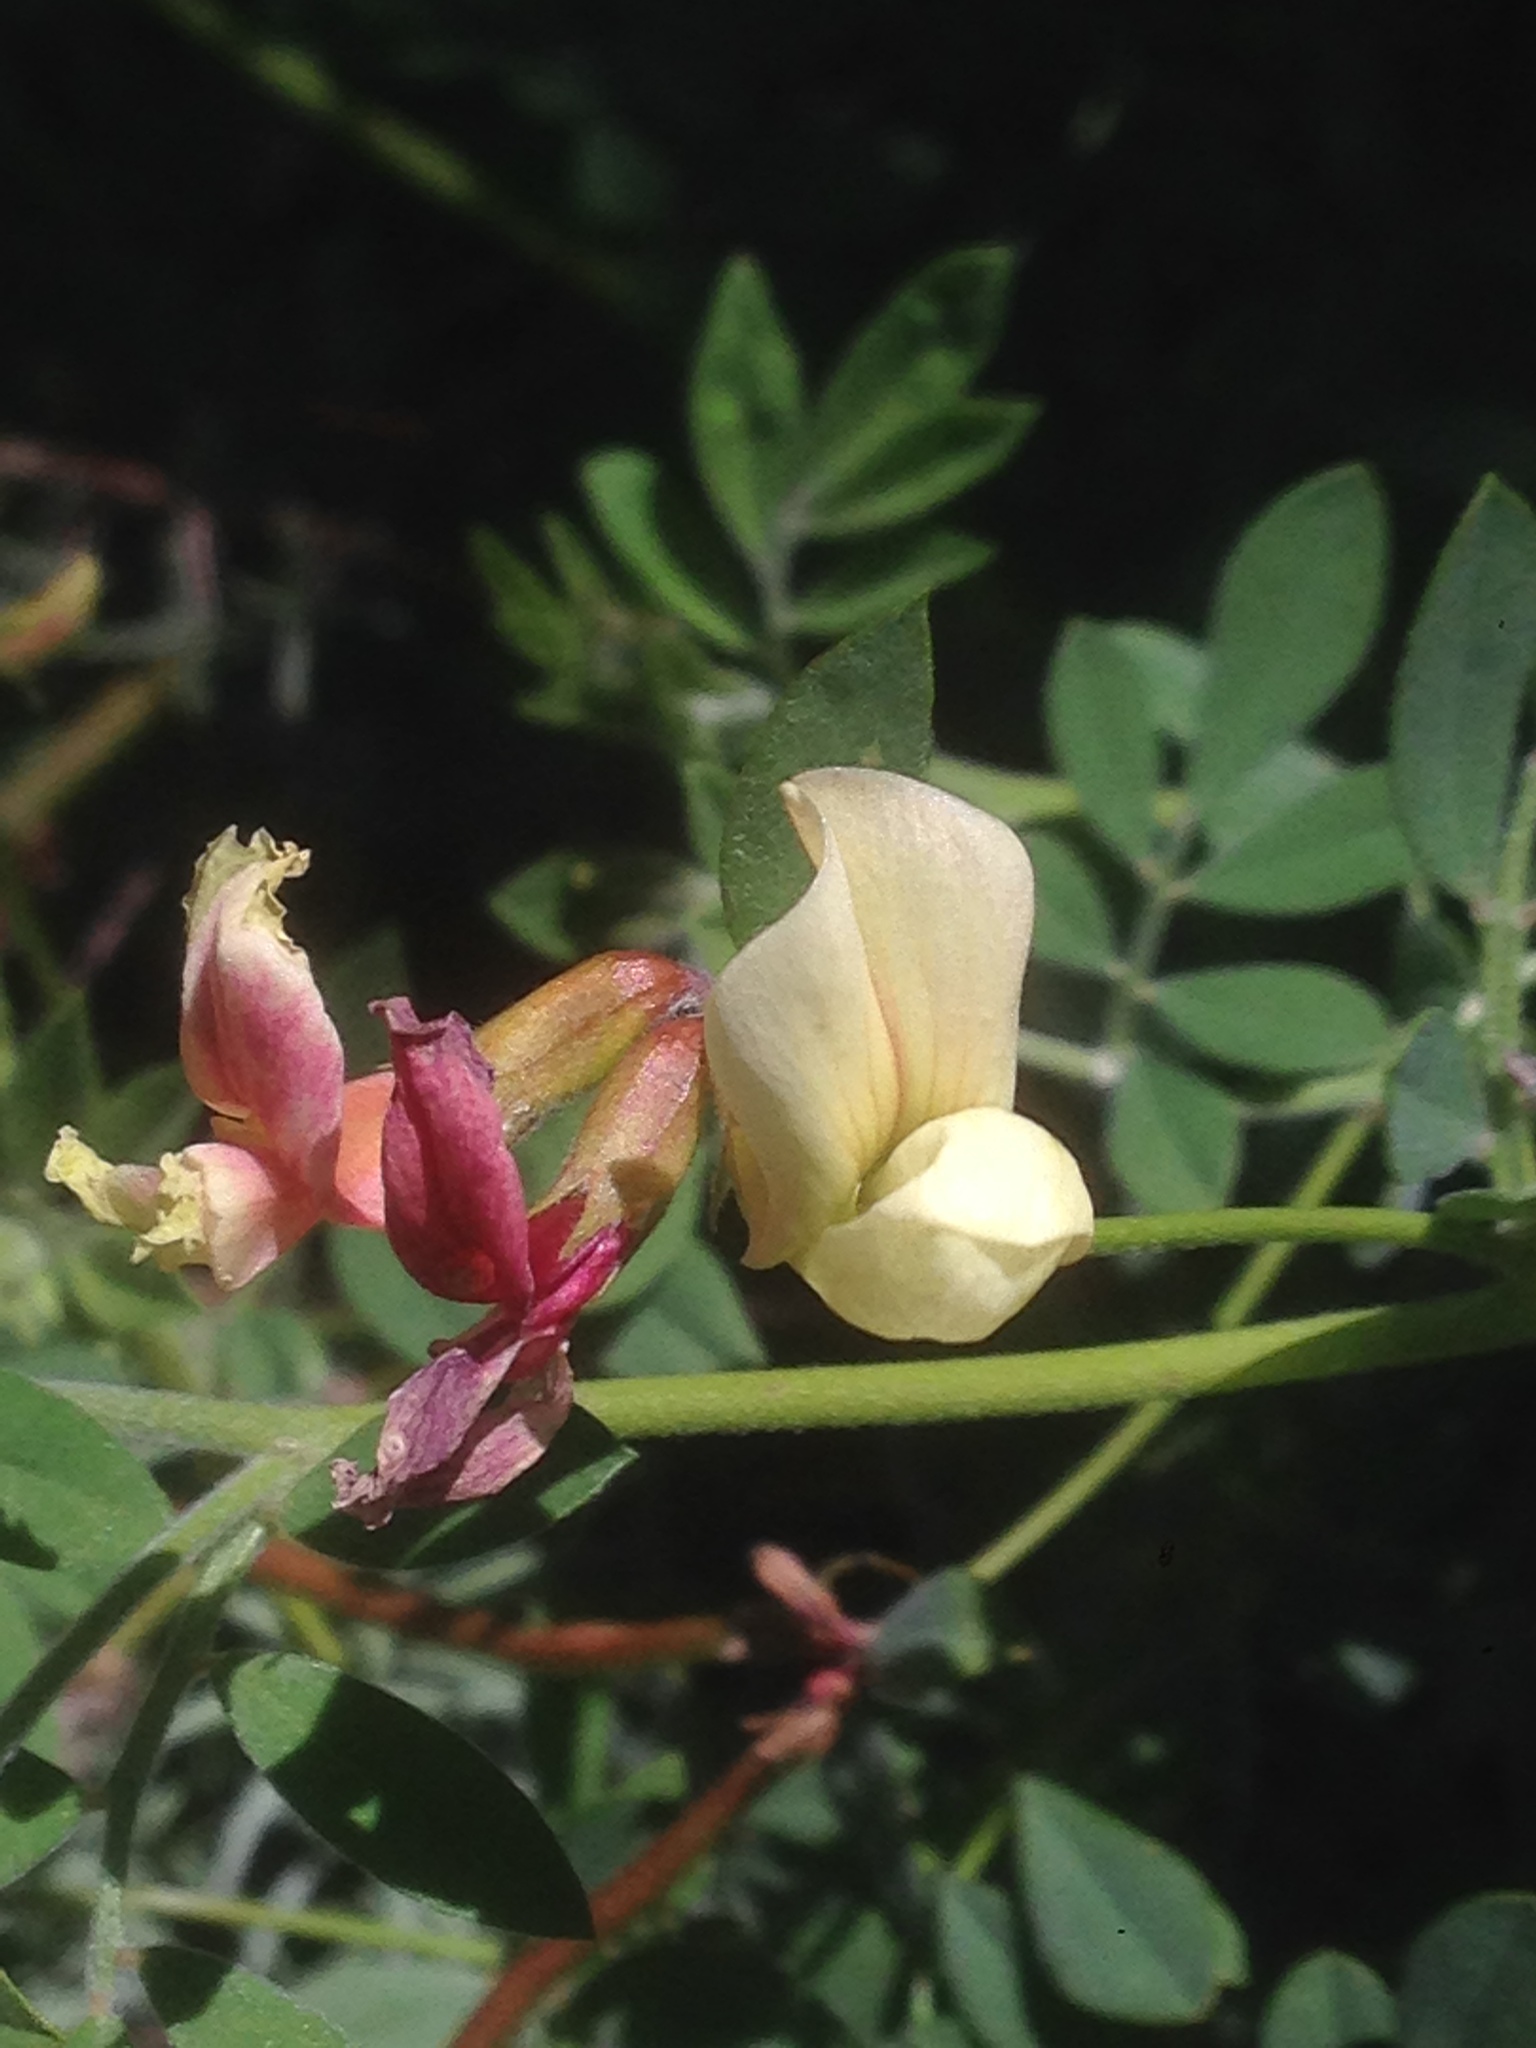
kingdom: Plantae
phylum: Tracheophyta
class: Magnoliopsida
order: Fabales
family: Fabaceae
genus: Acmispon
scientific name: Acmispon grandiflorus
